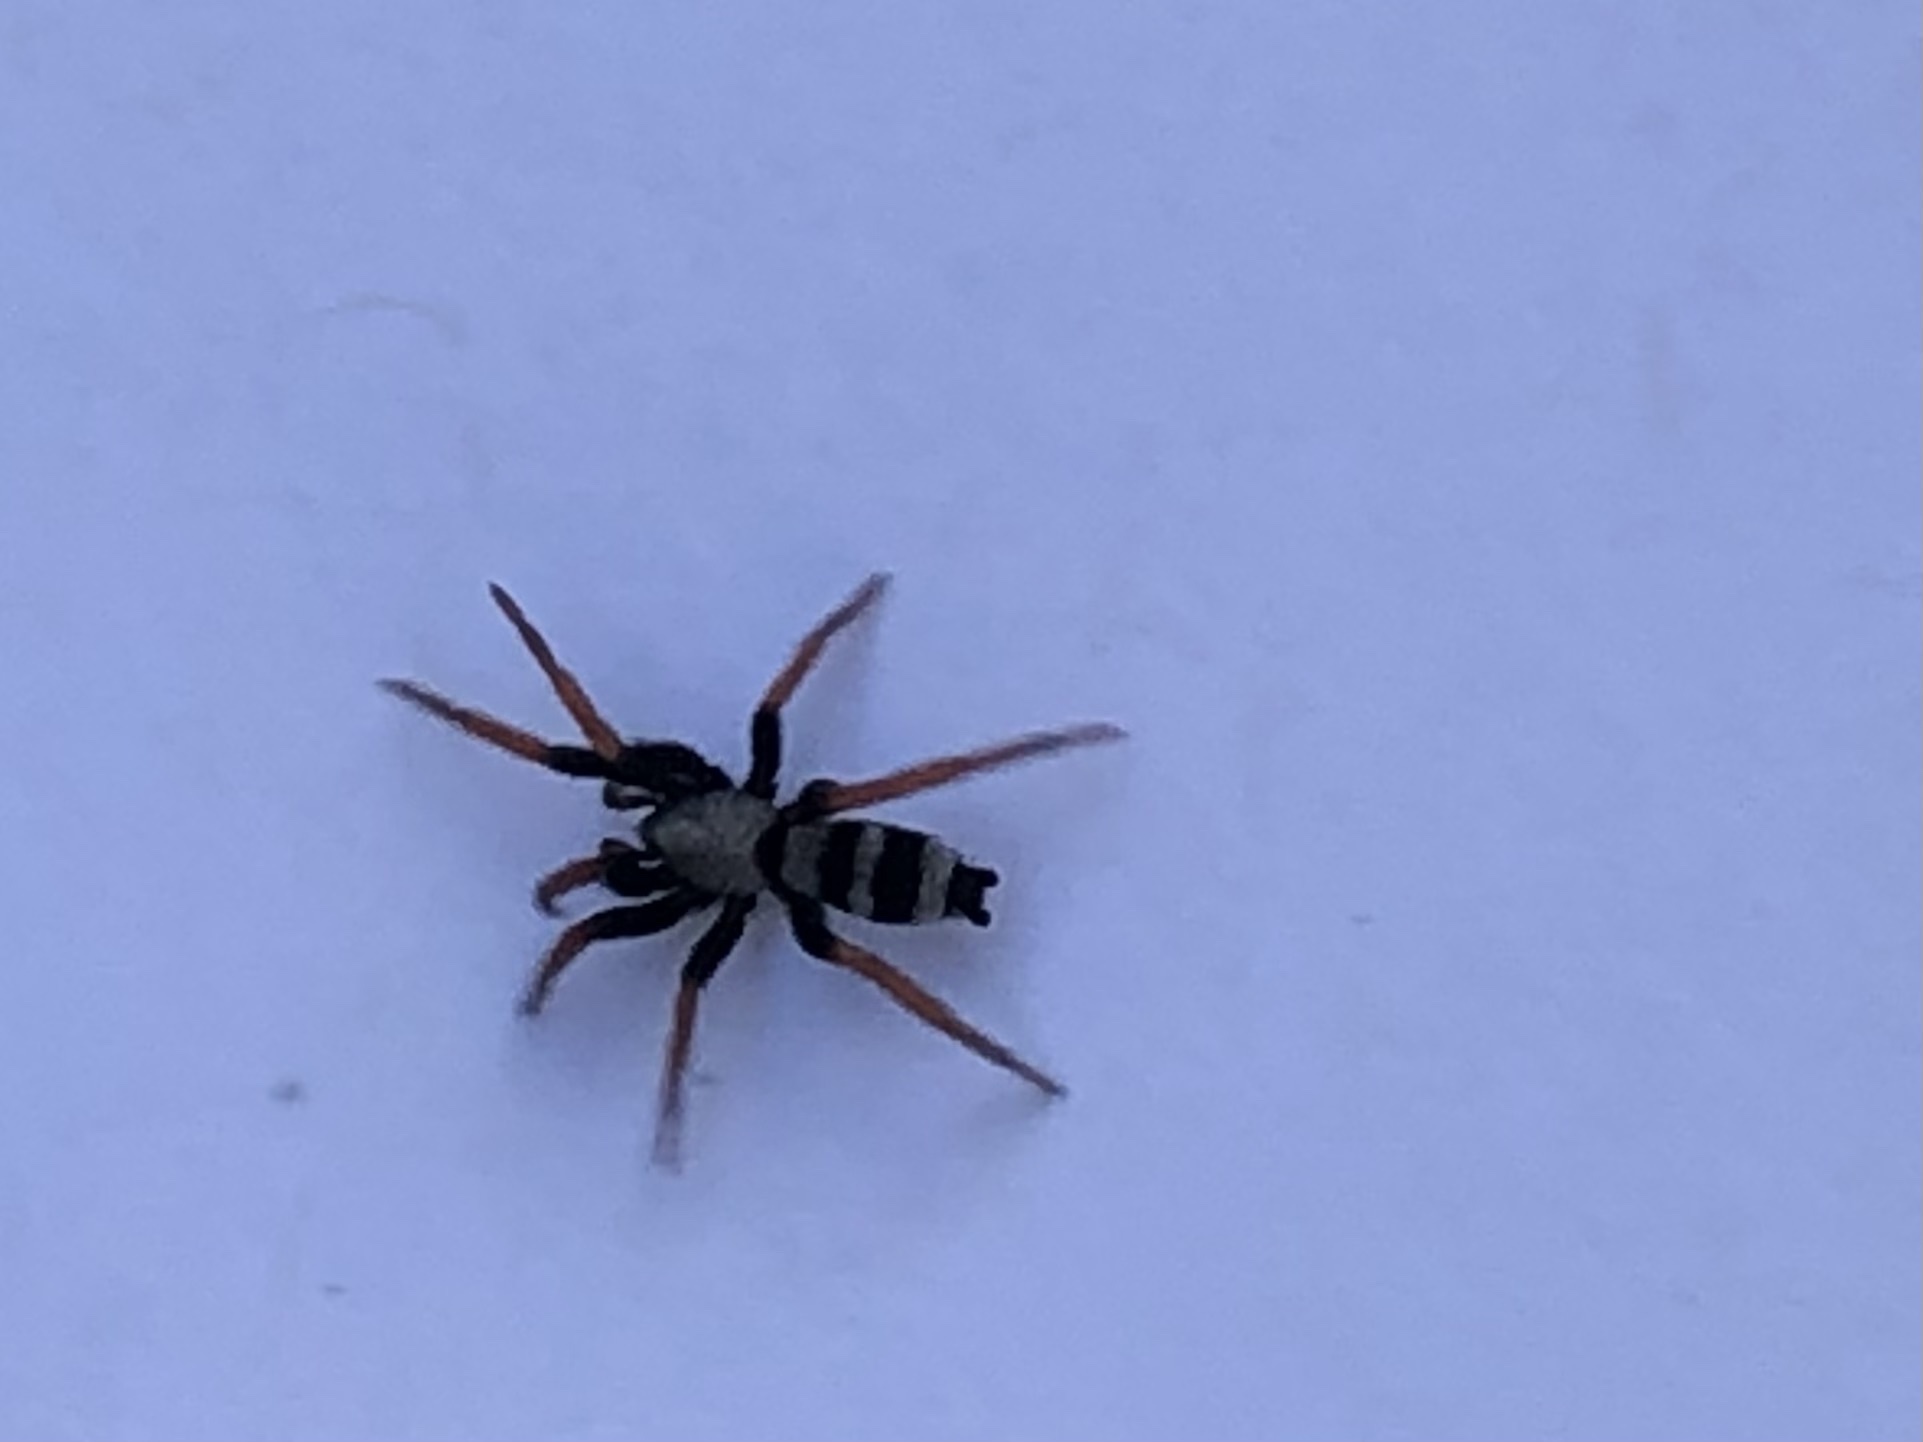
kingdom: Animalia
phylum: Arthropoda
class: Arachnida
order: Araneae
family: Gnaphosidae
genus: Sergiolus
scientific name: Sergiolus tennesseensis
